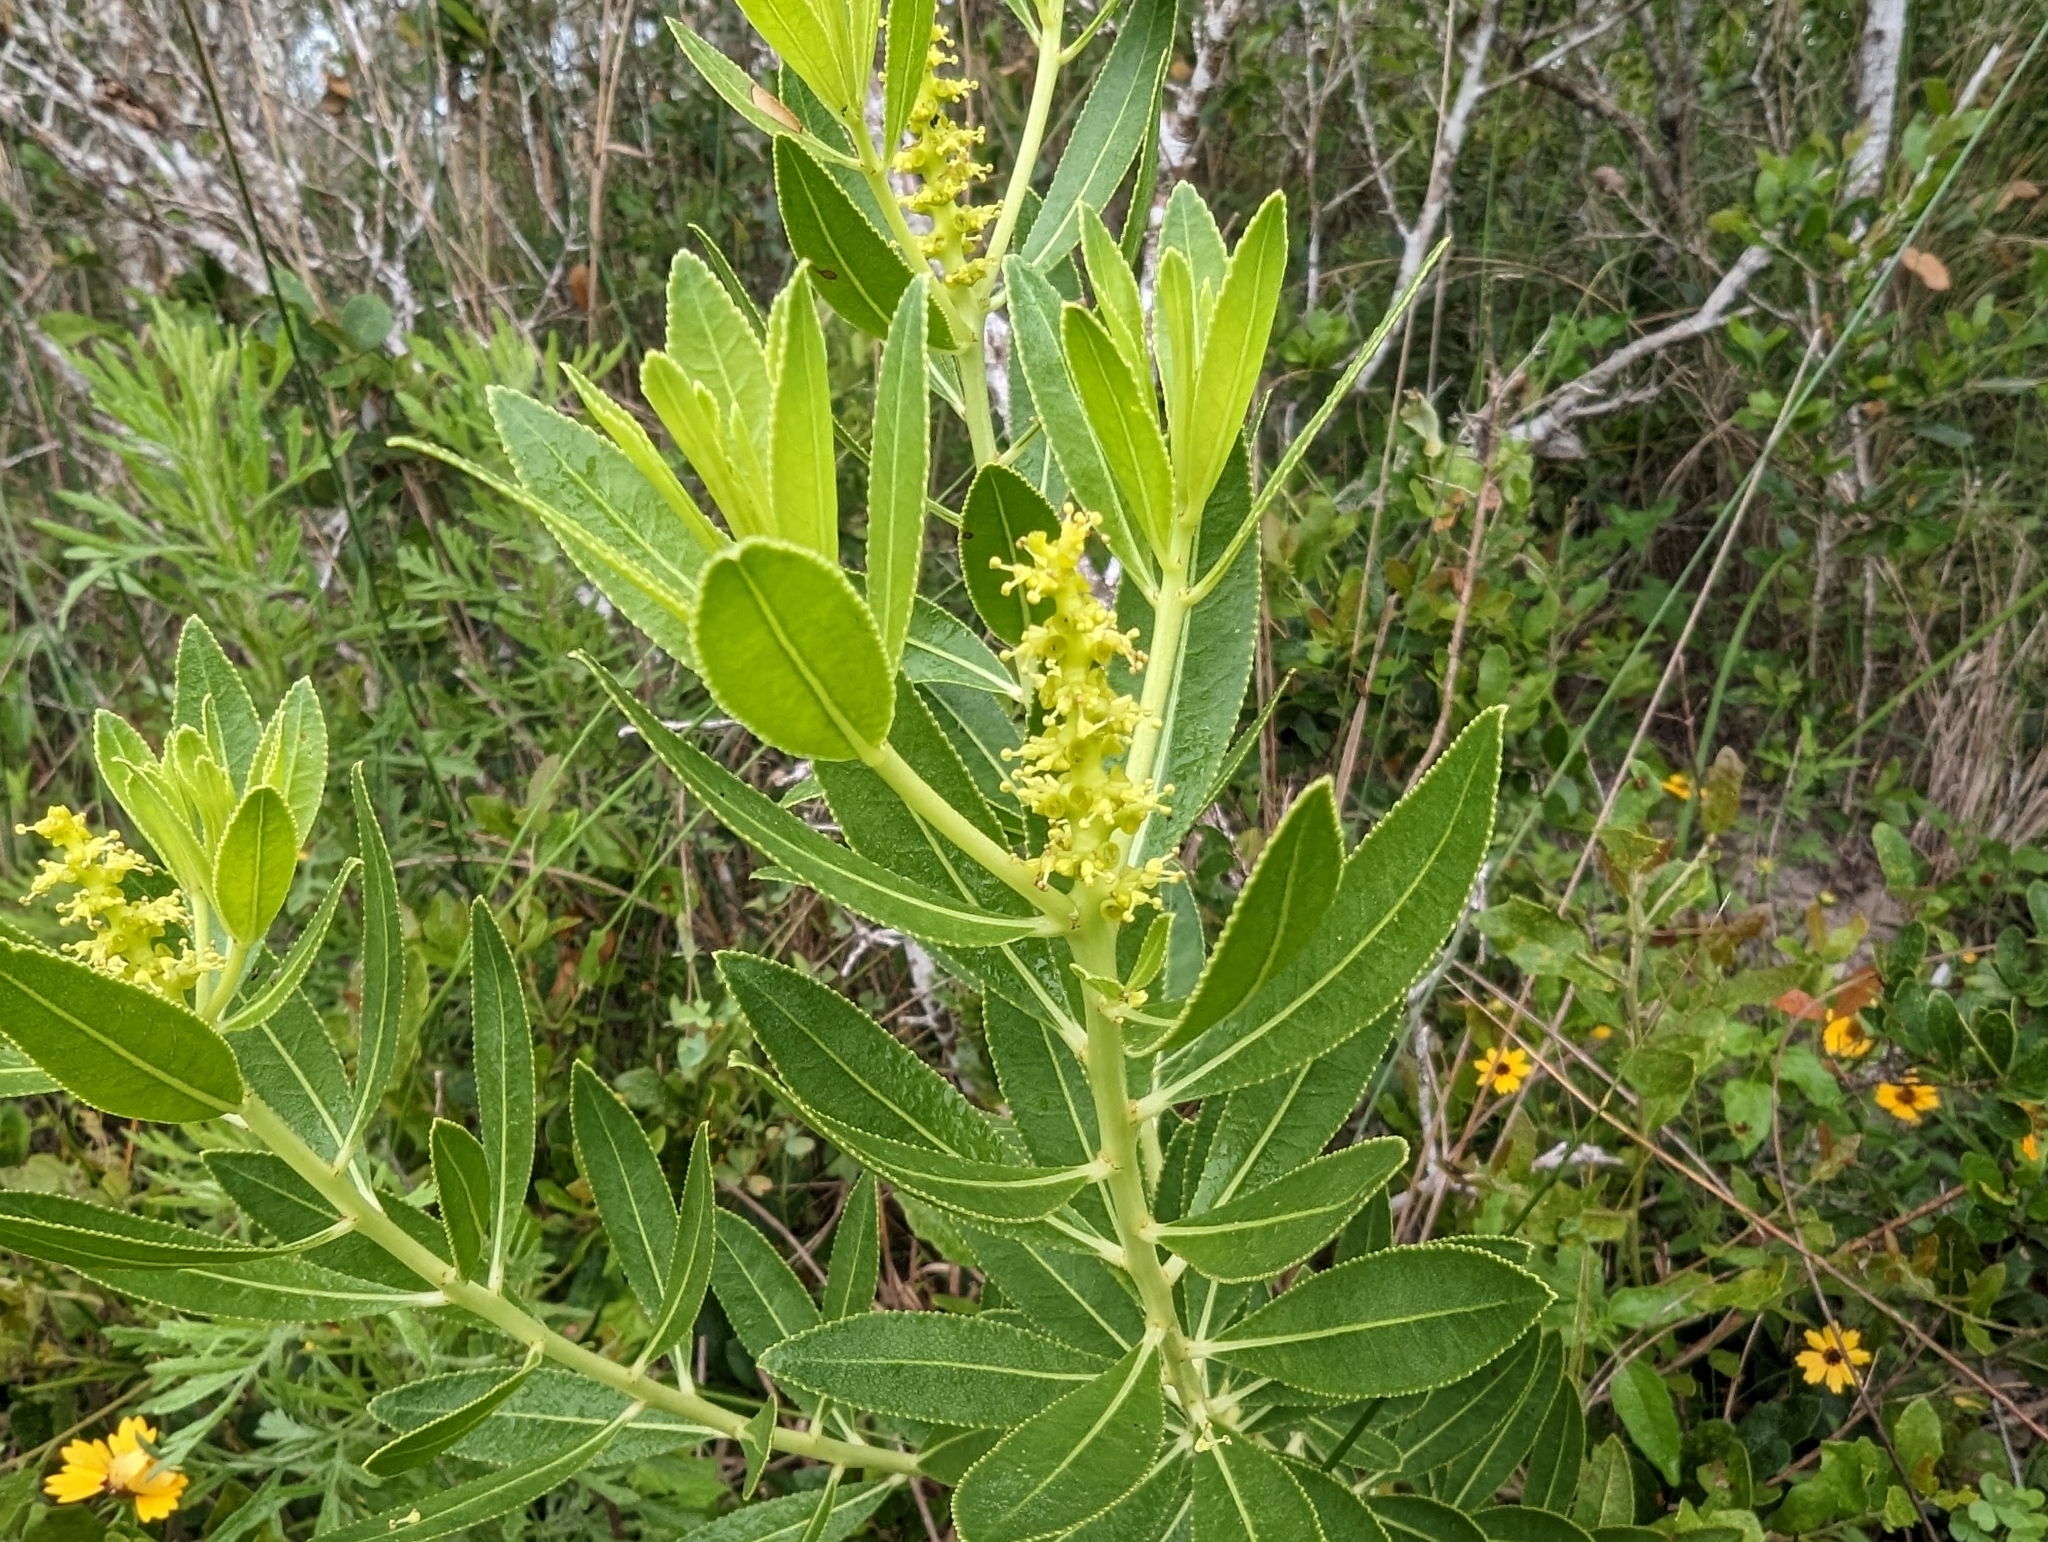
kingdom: Plantae
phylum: Tracheophyta
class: Magnoliopsida
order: Malpighiales
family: Euphorbiaceae
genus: Stillingia
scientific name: Stillingia sylvatica
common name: Queen's-delight
